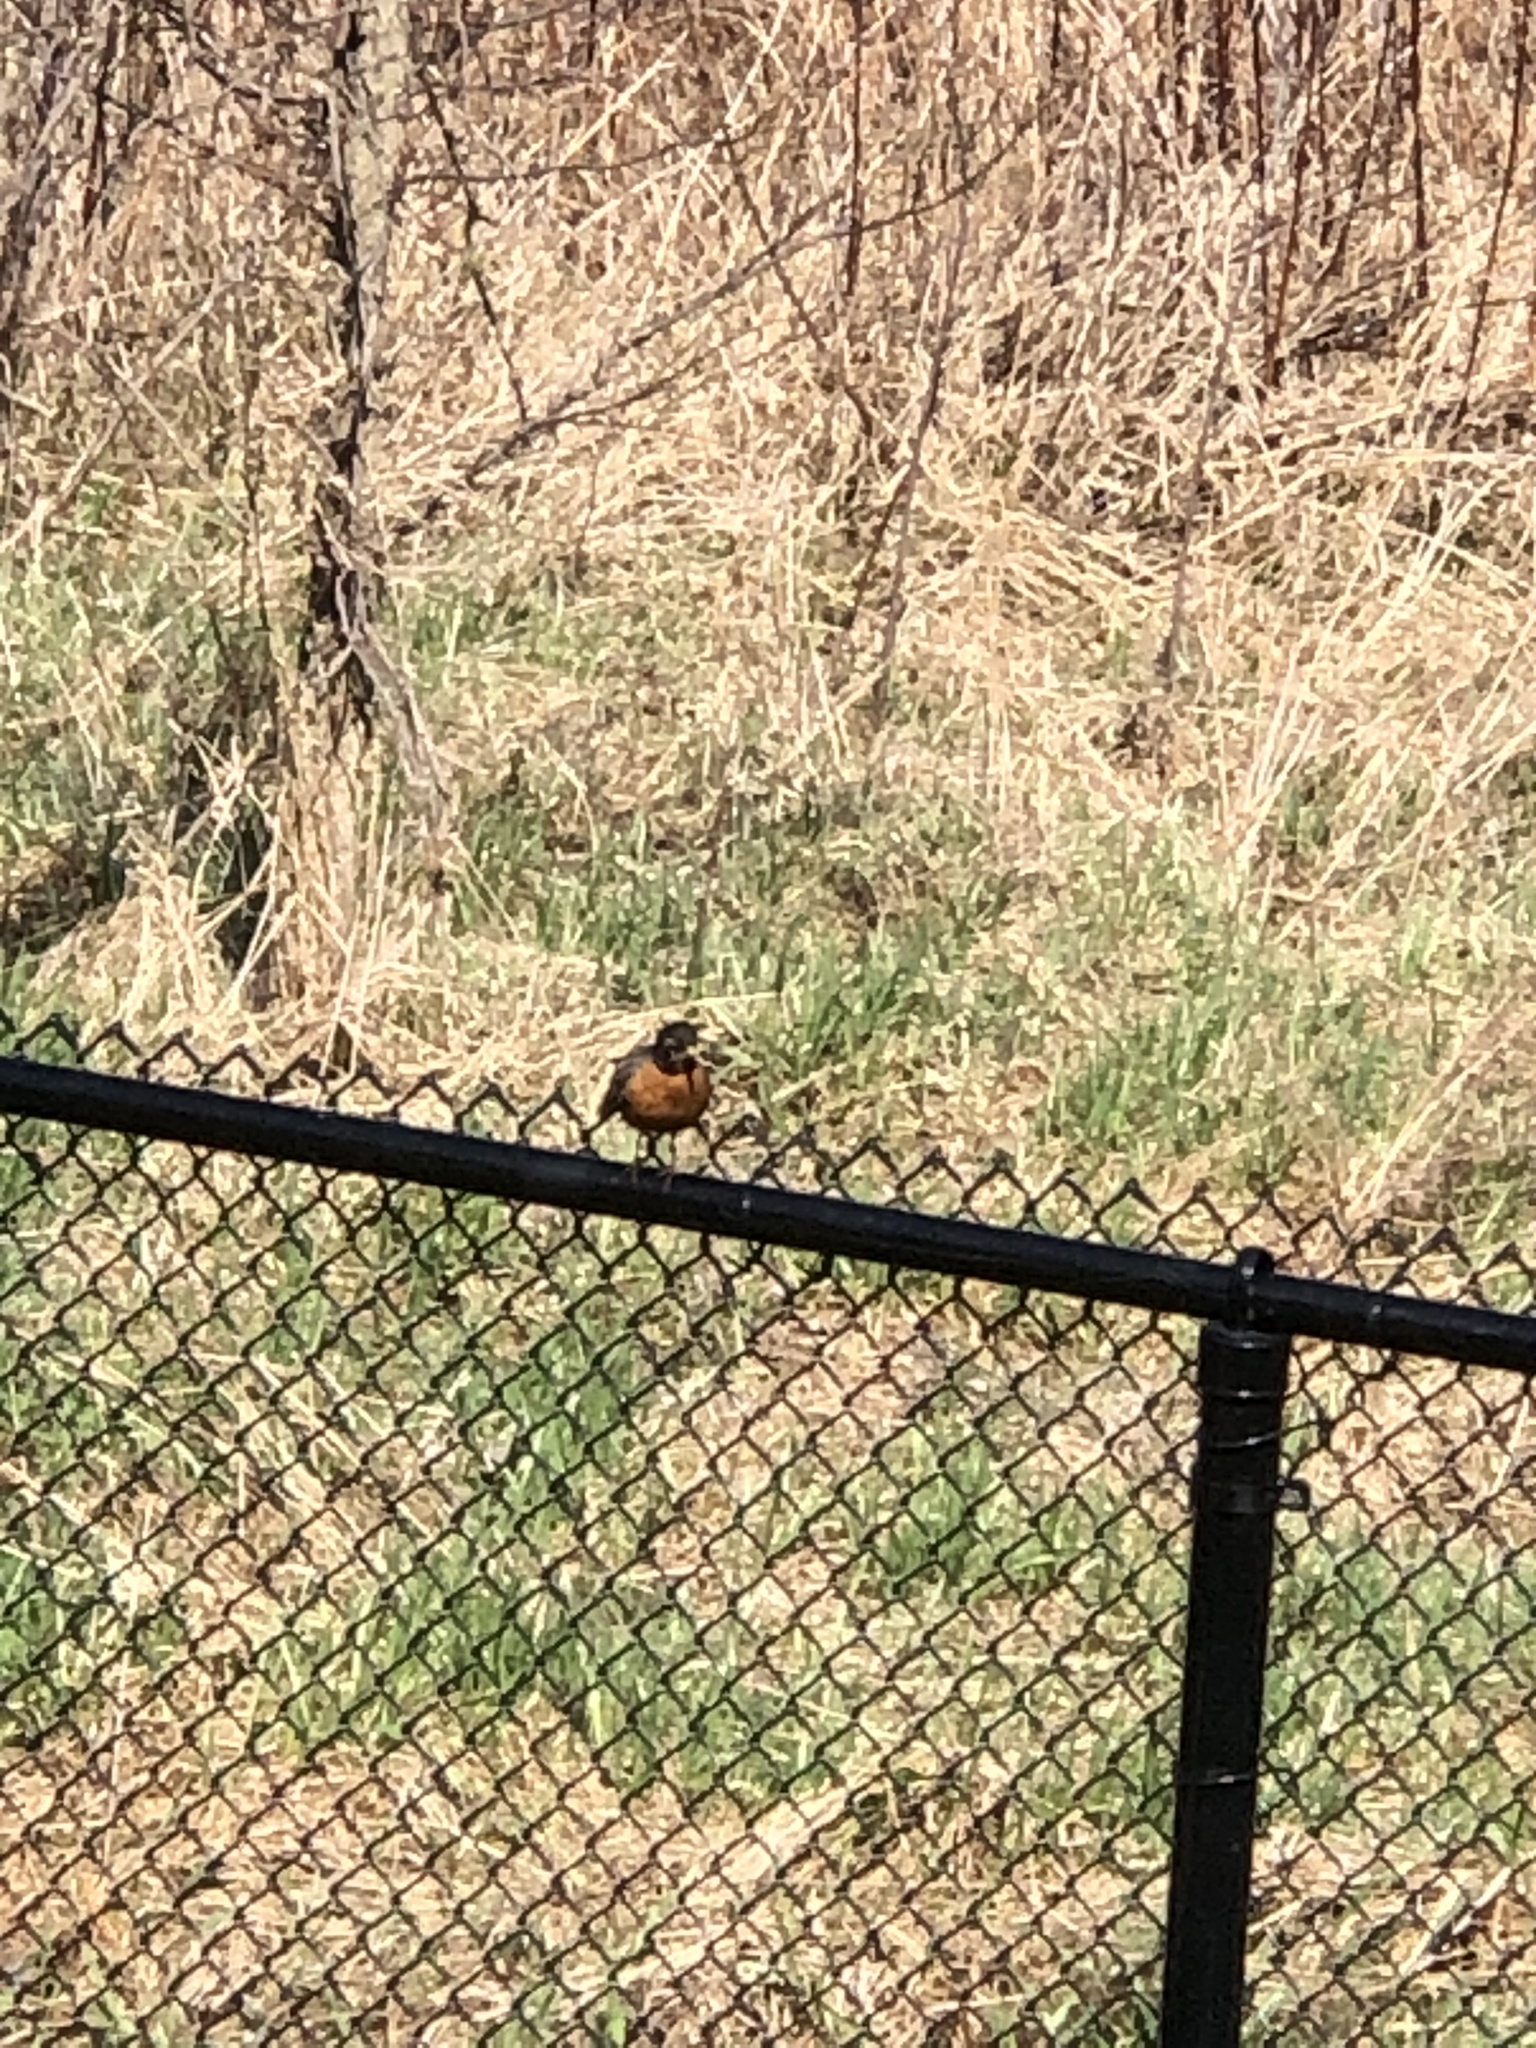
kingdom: Animalia
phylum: Chordata
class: Aves
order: Passeriformes
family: Turdidae
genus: Turdus
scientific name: Turdus migratorius
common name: American robin
